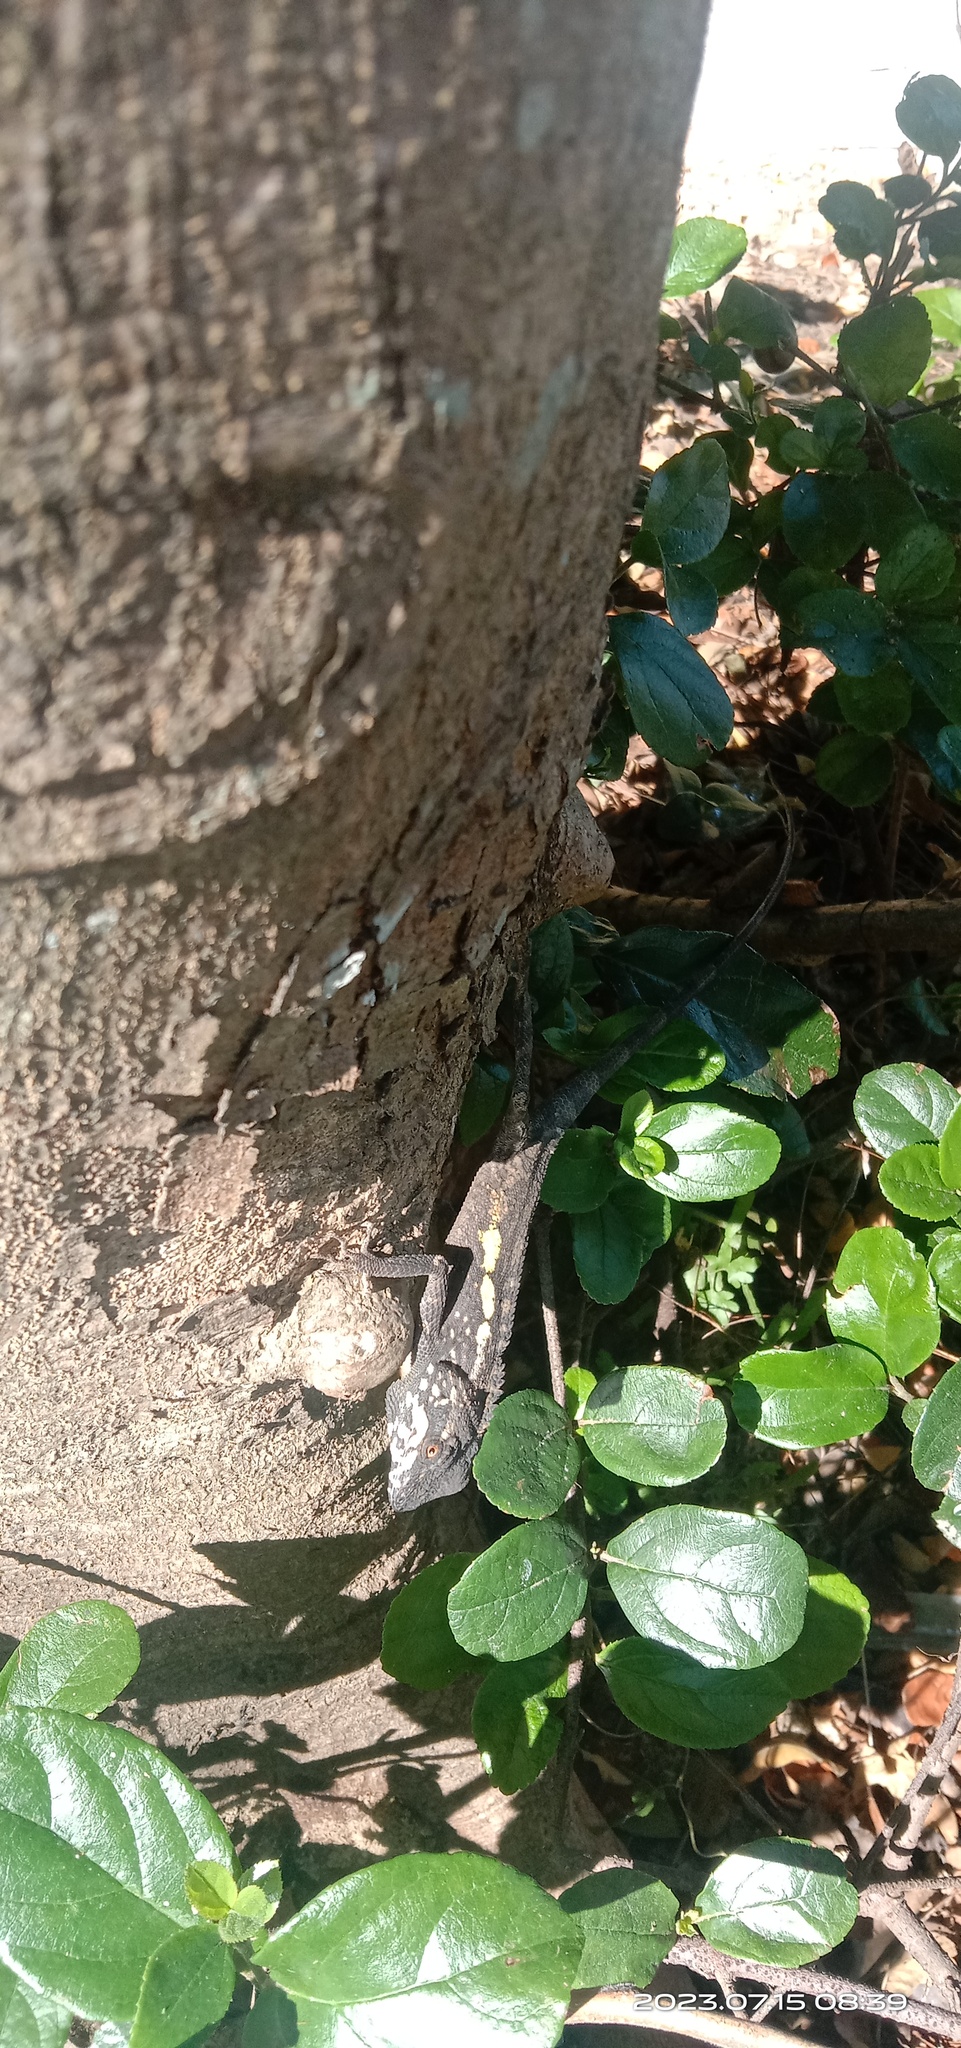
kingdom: Animalia
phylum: Chordata
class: Squamata
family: Agamidae
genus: Diploderma
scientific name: Diploderma swinhonis
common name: Taiwan japalure
